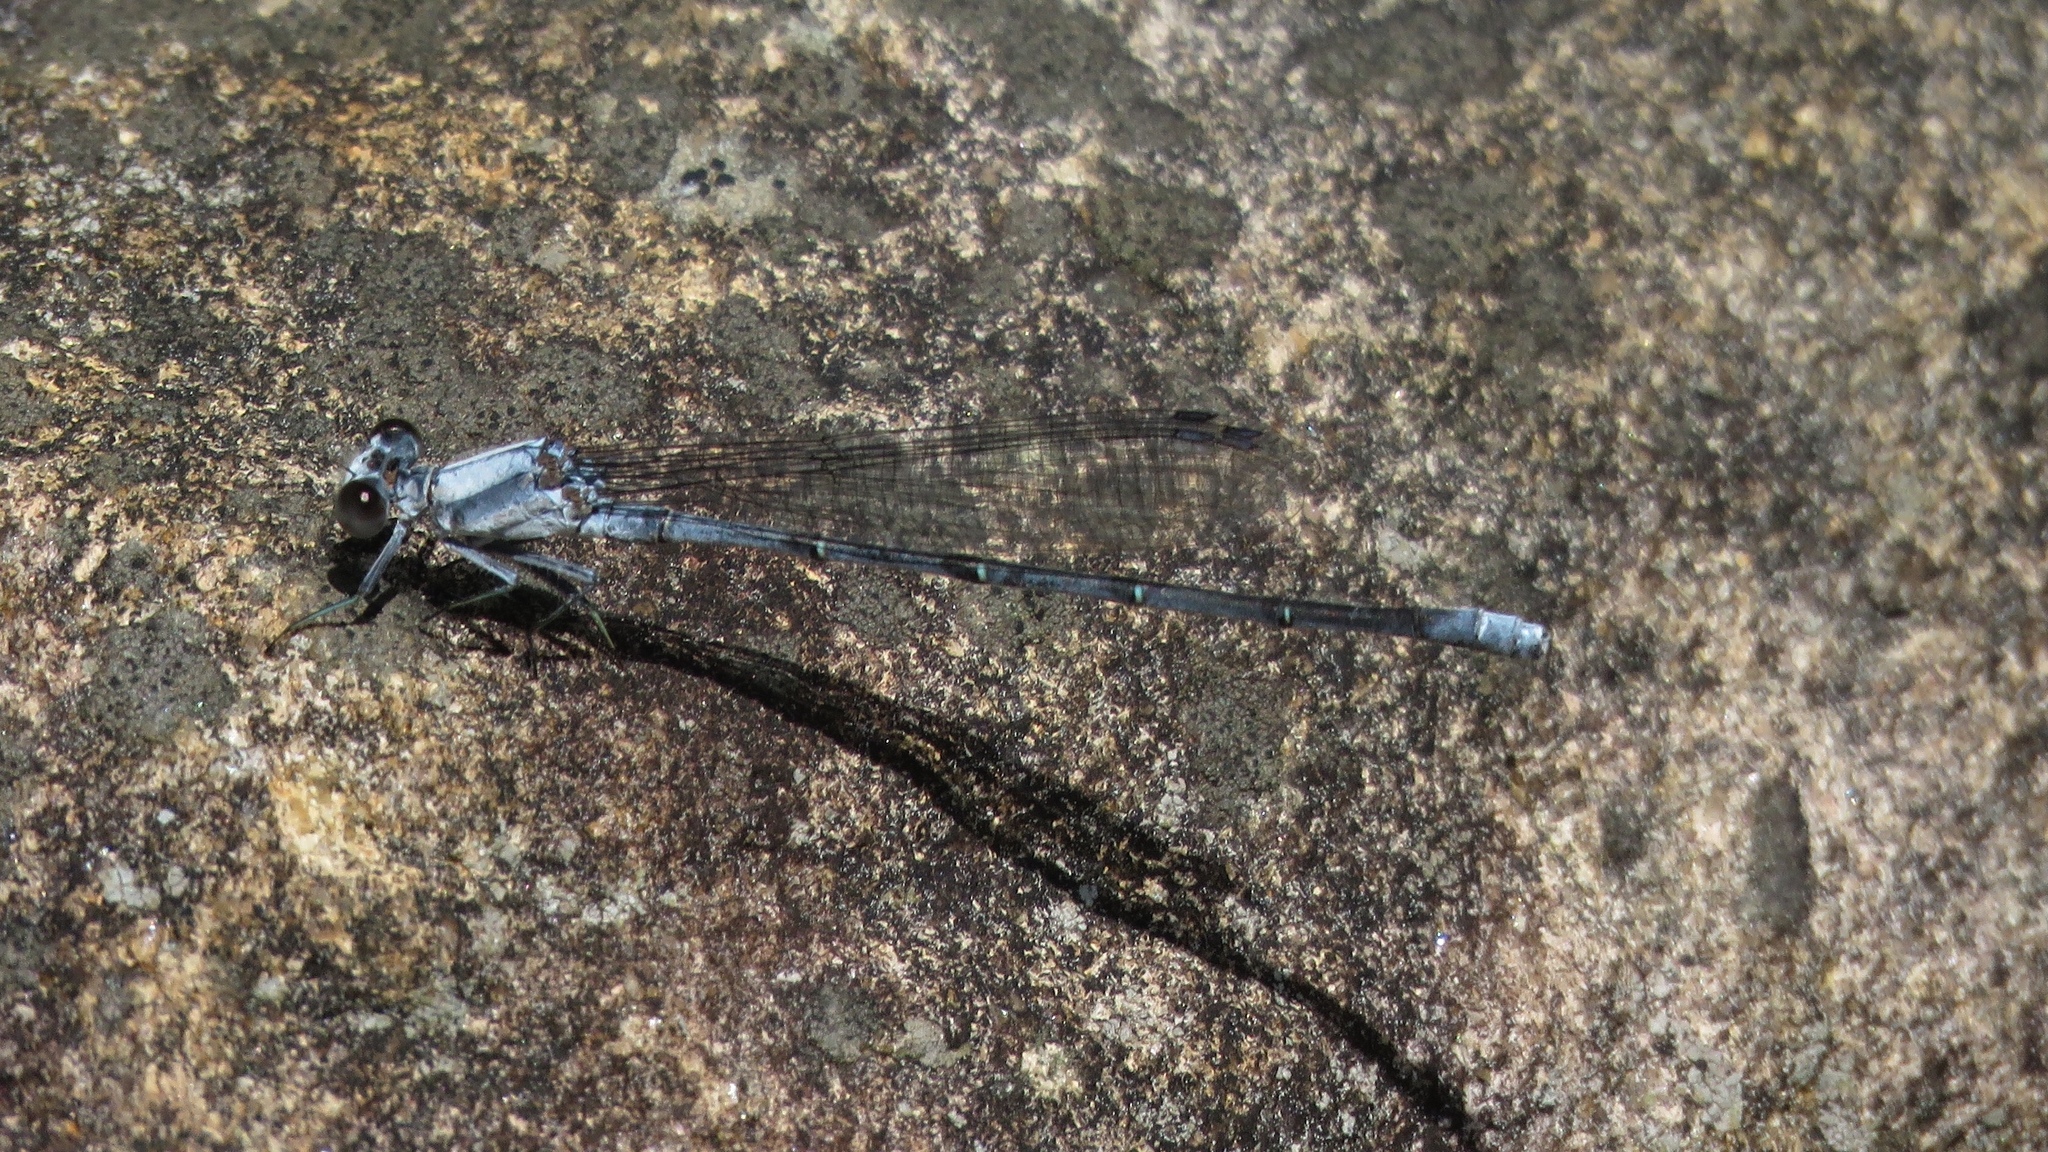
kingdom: Animalia
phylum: Arthropoda
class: Insecta
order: Odonata
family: Coenagrionidae
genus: Argia
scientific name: Argia moesta
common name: Powdered dancer
